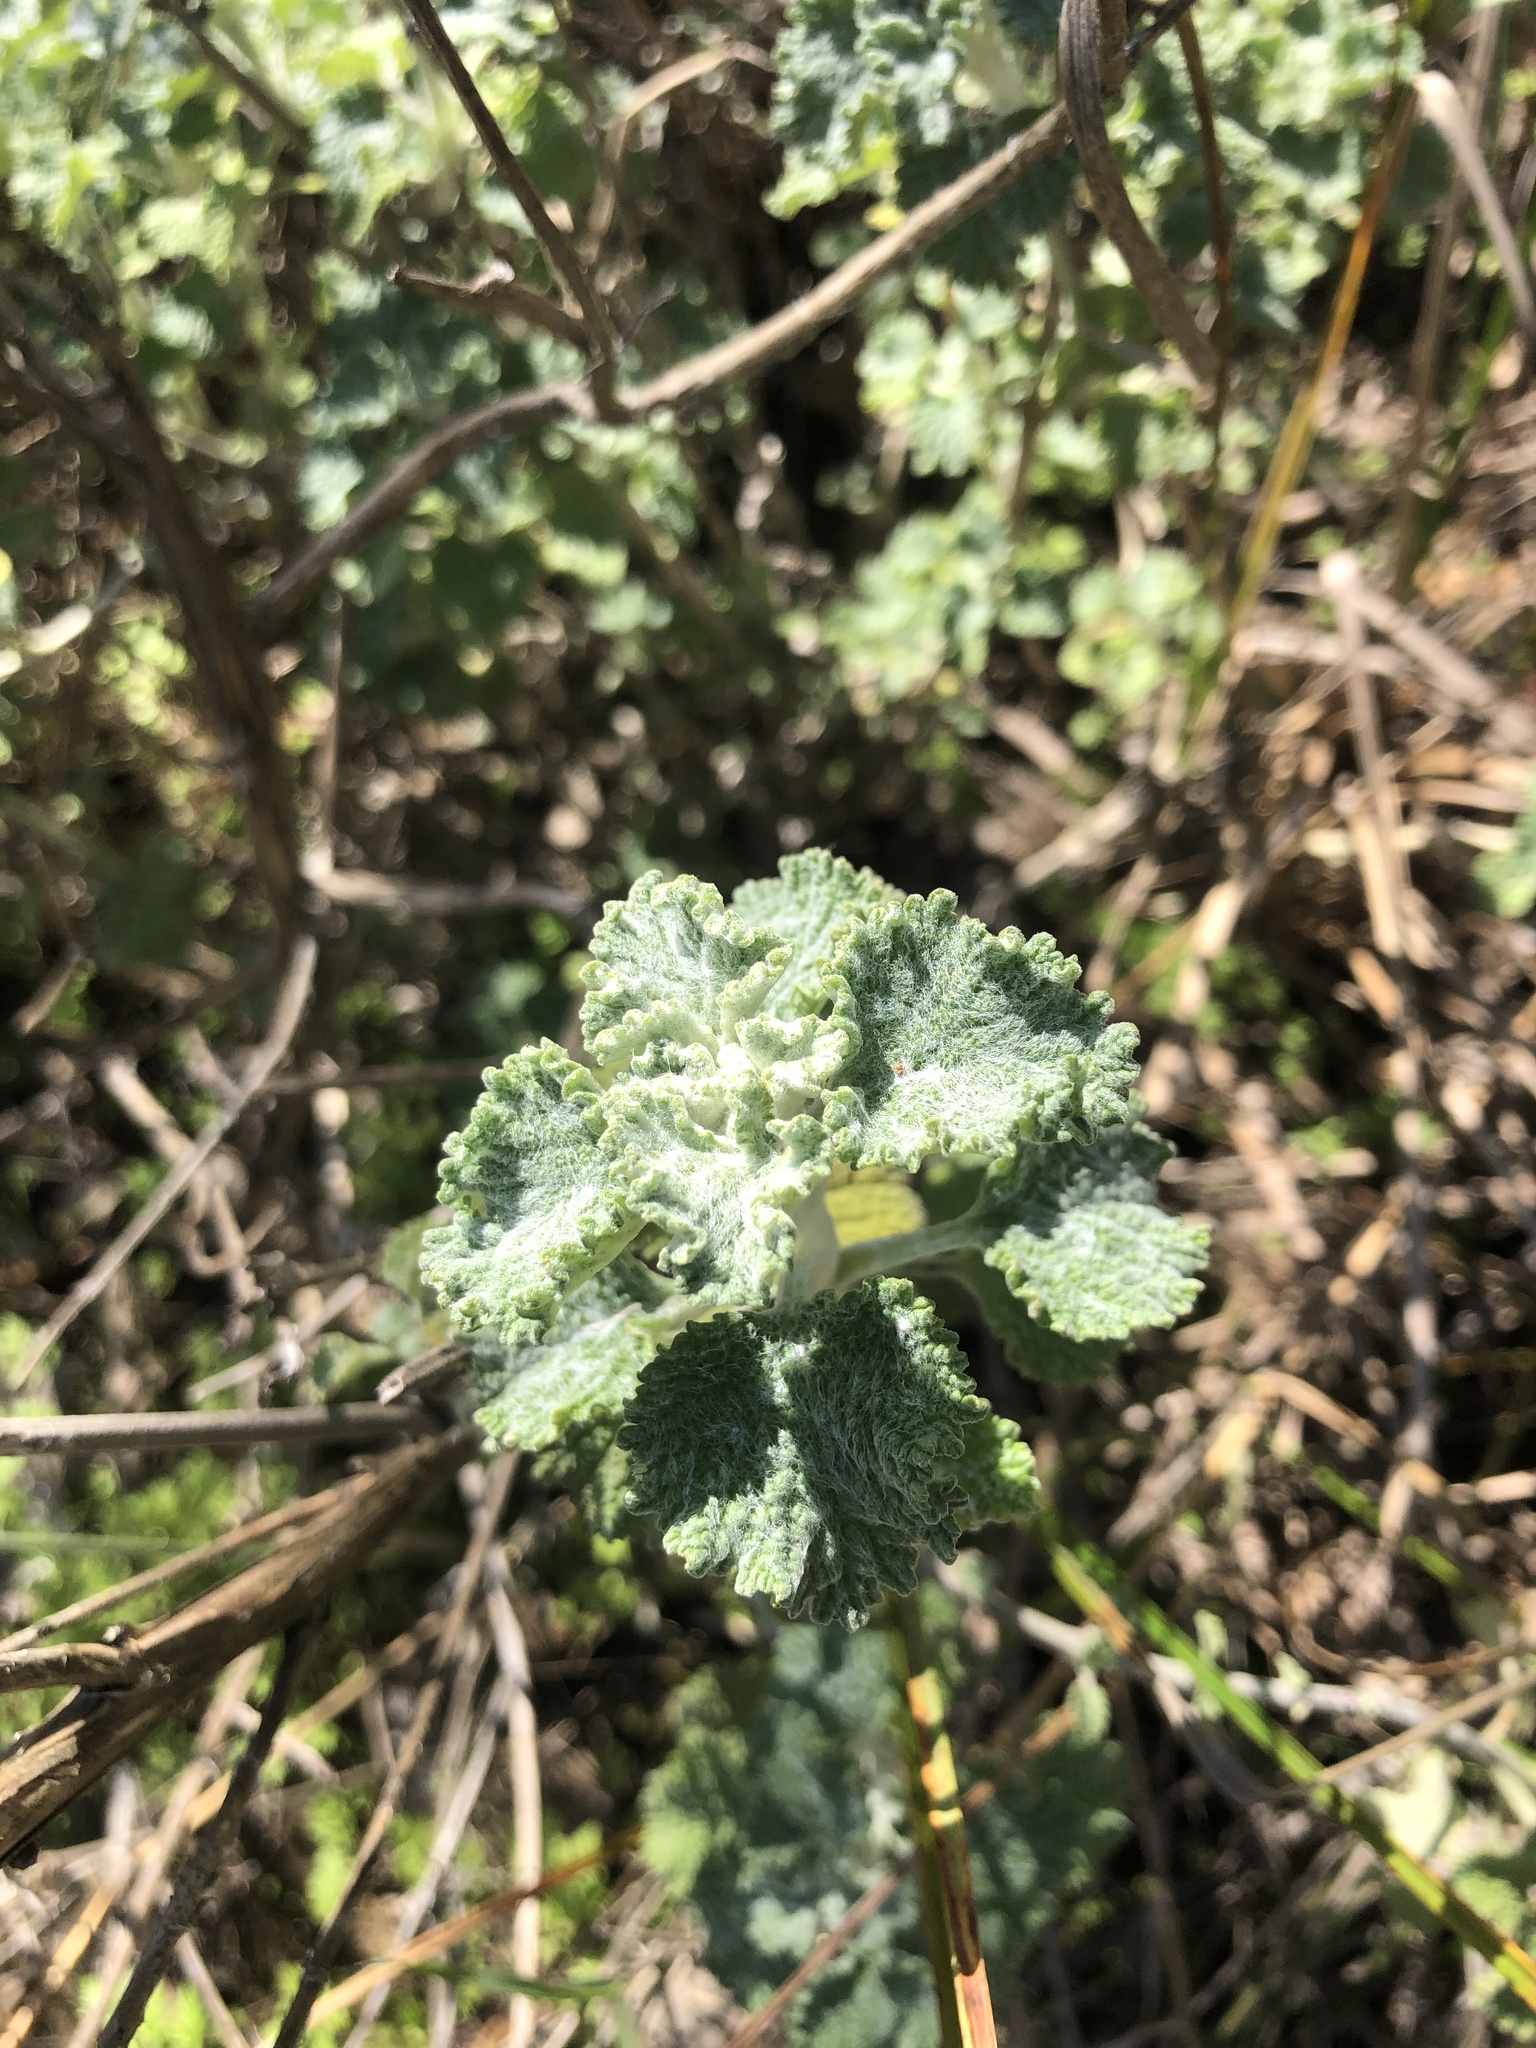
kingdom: Plantae
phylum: Tracheophyta
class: Magnoliopsida
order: Lamiales
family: Lamiaceae
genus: Marrubium
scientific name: Marrubium vulgare
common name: Horehound
